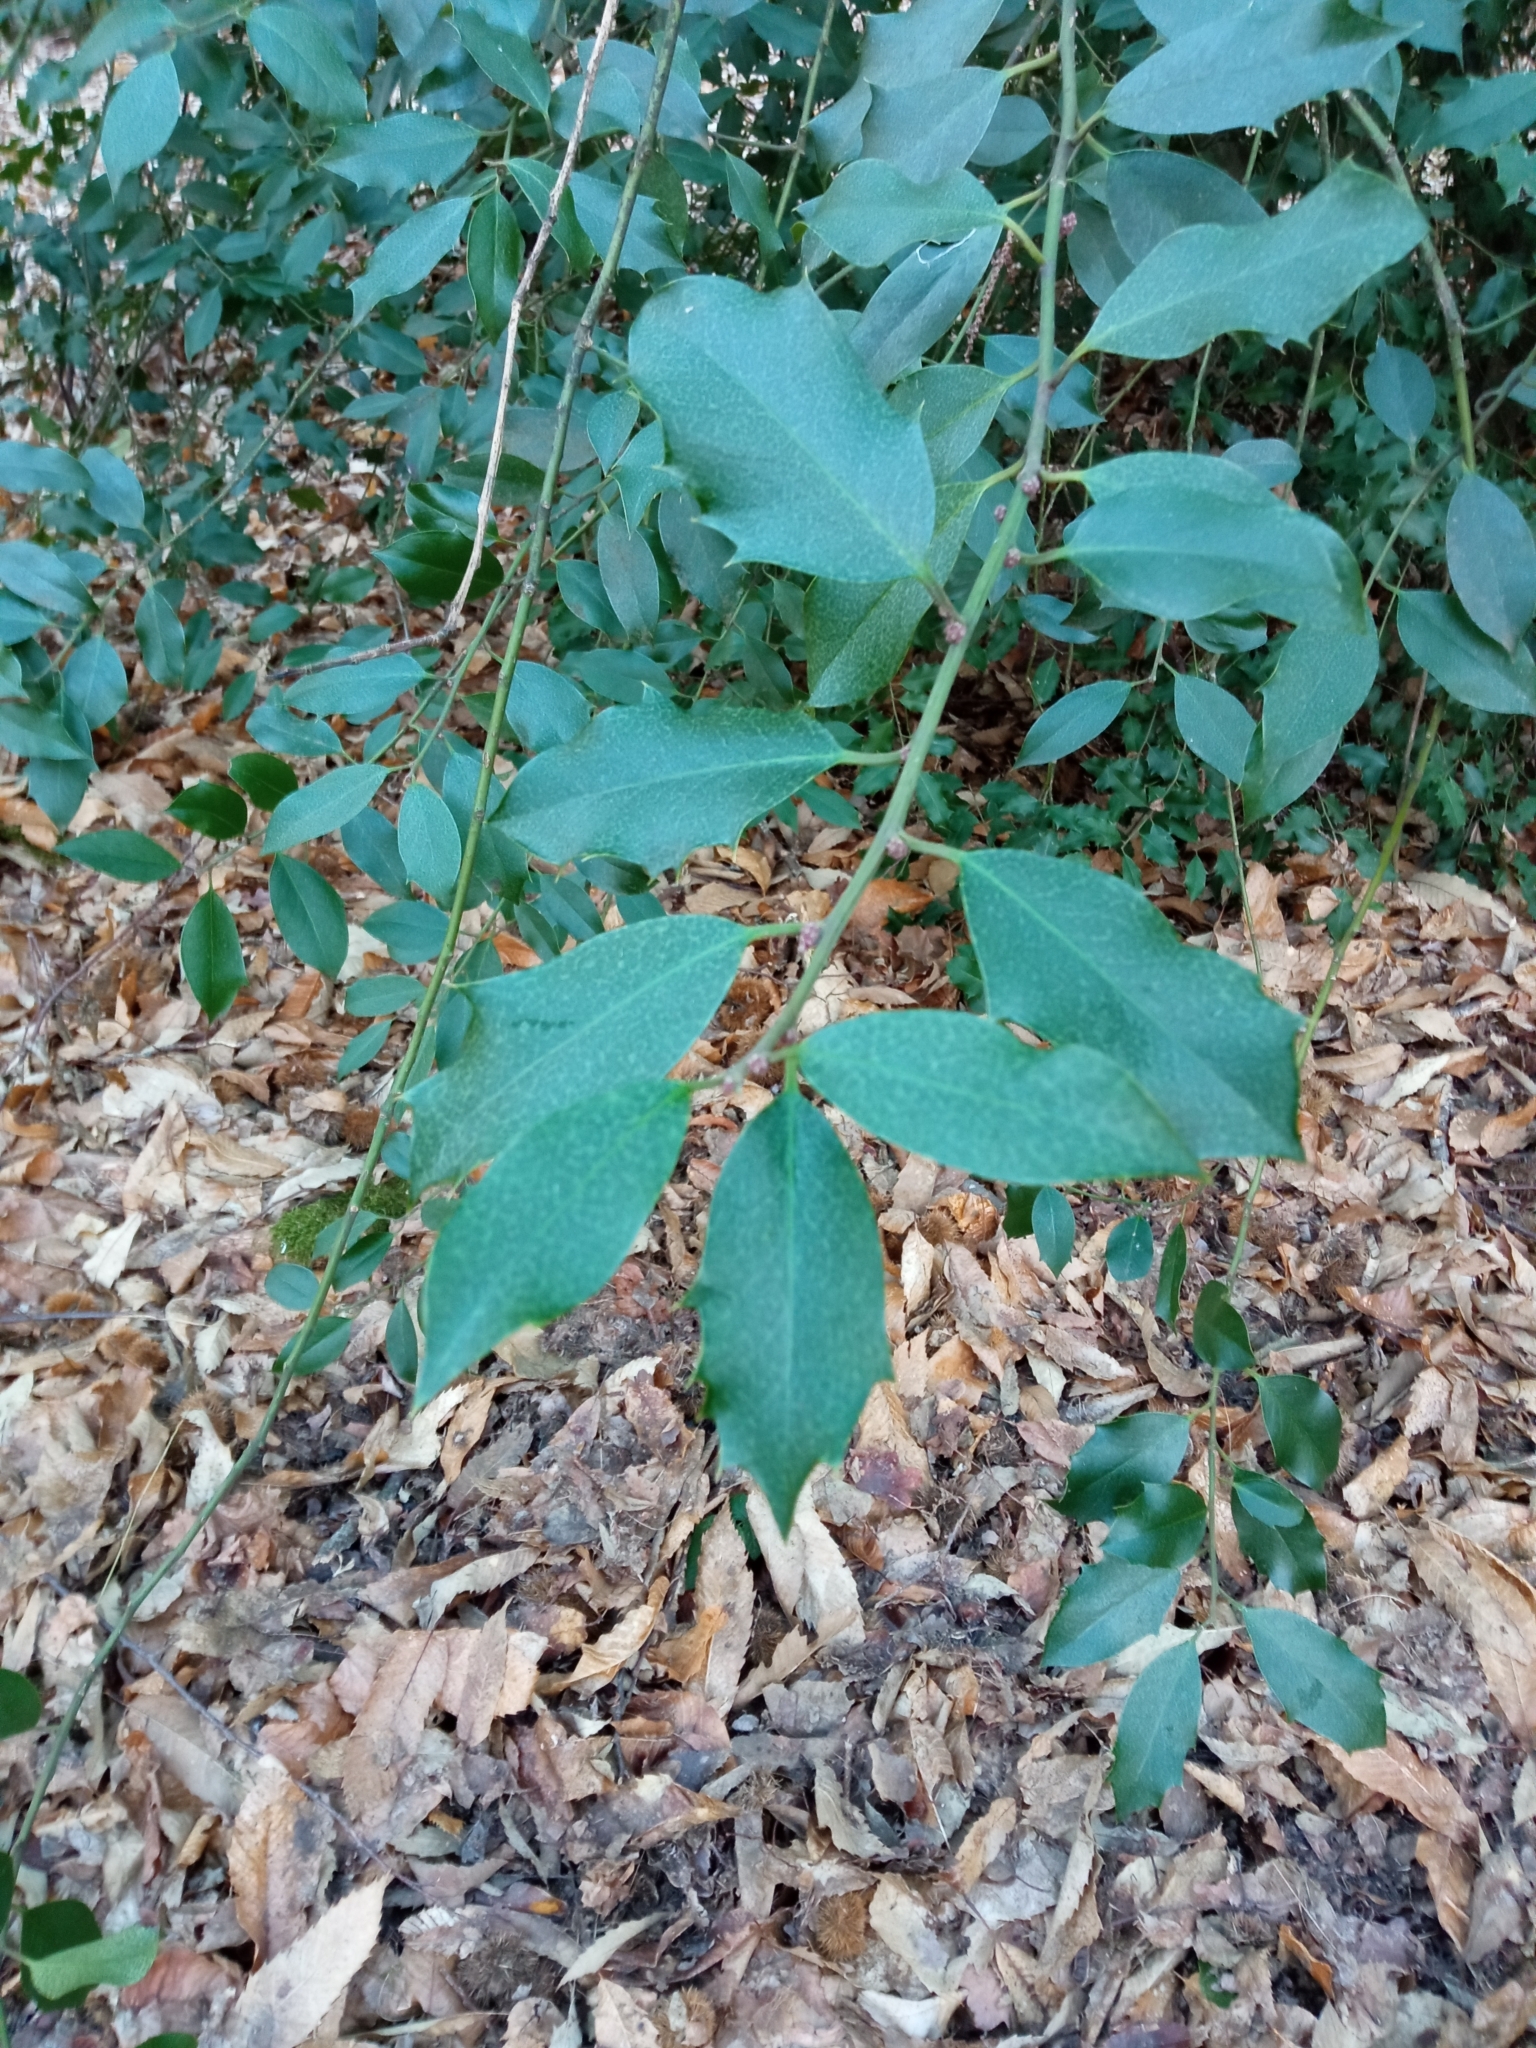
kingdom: Plantae
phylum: Tracheophyta
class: Magnoliopsida
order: Aquifoliales
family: Aquifoliaceae
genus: Ilex
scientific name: Ilex aquifolium
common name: English holly
